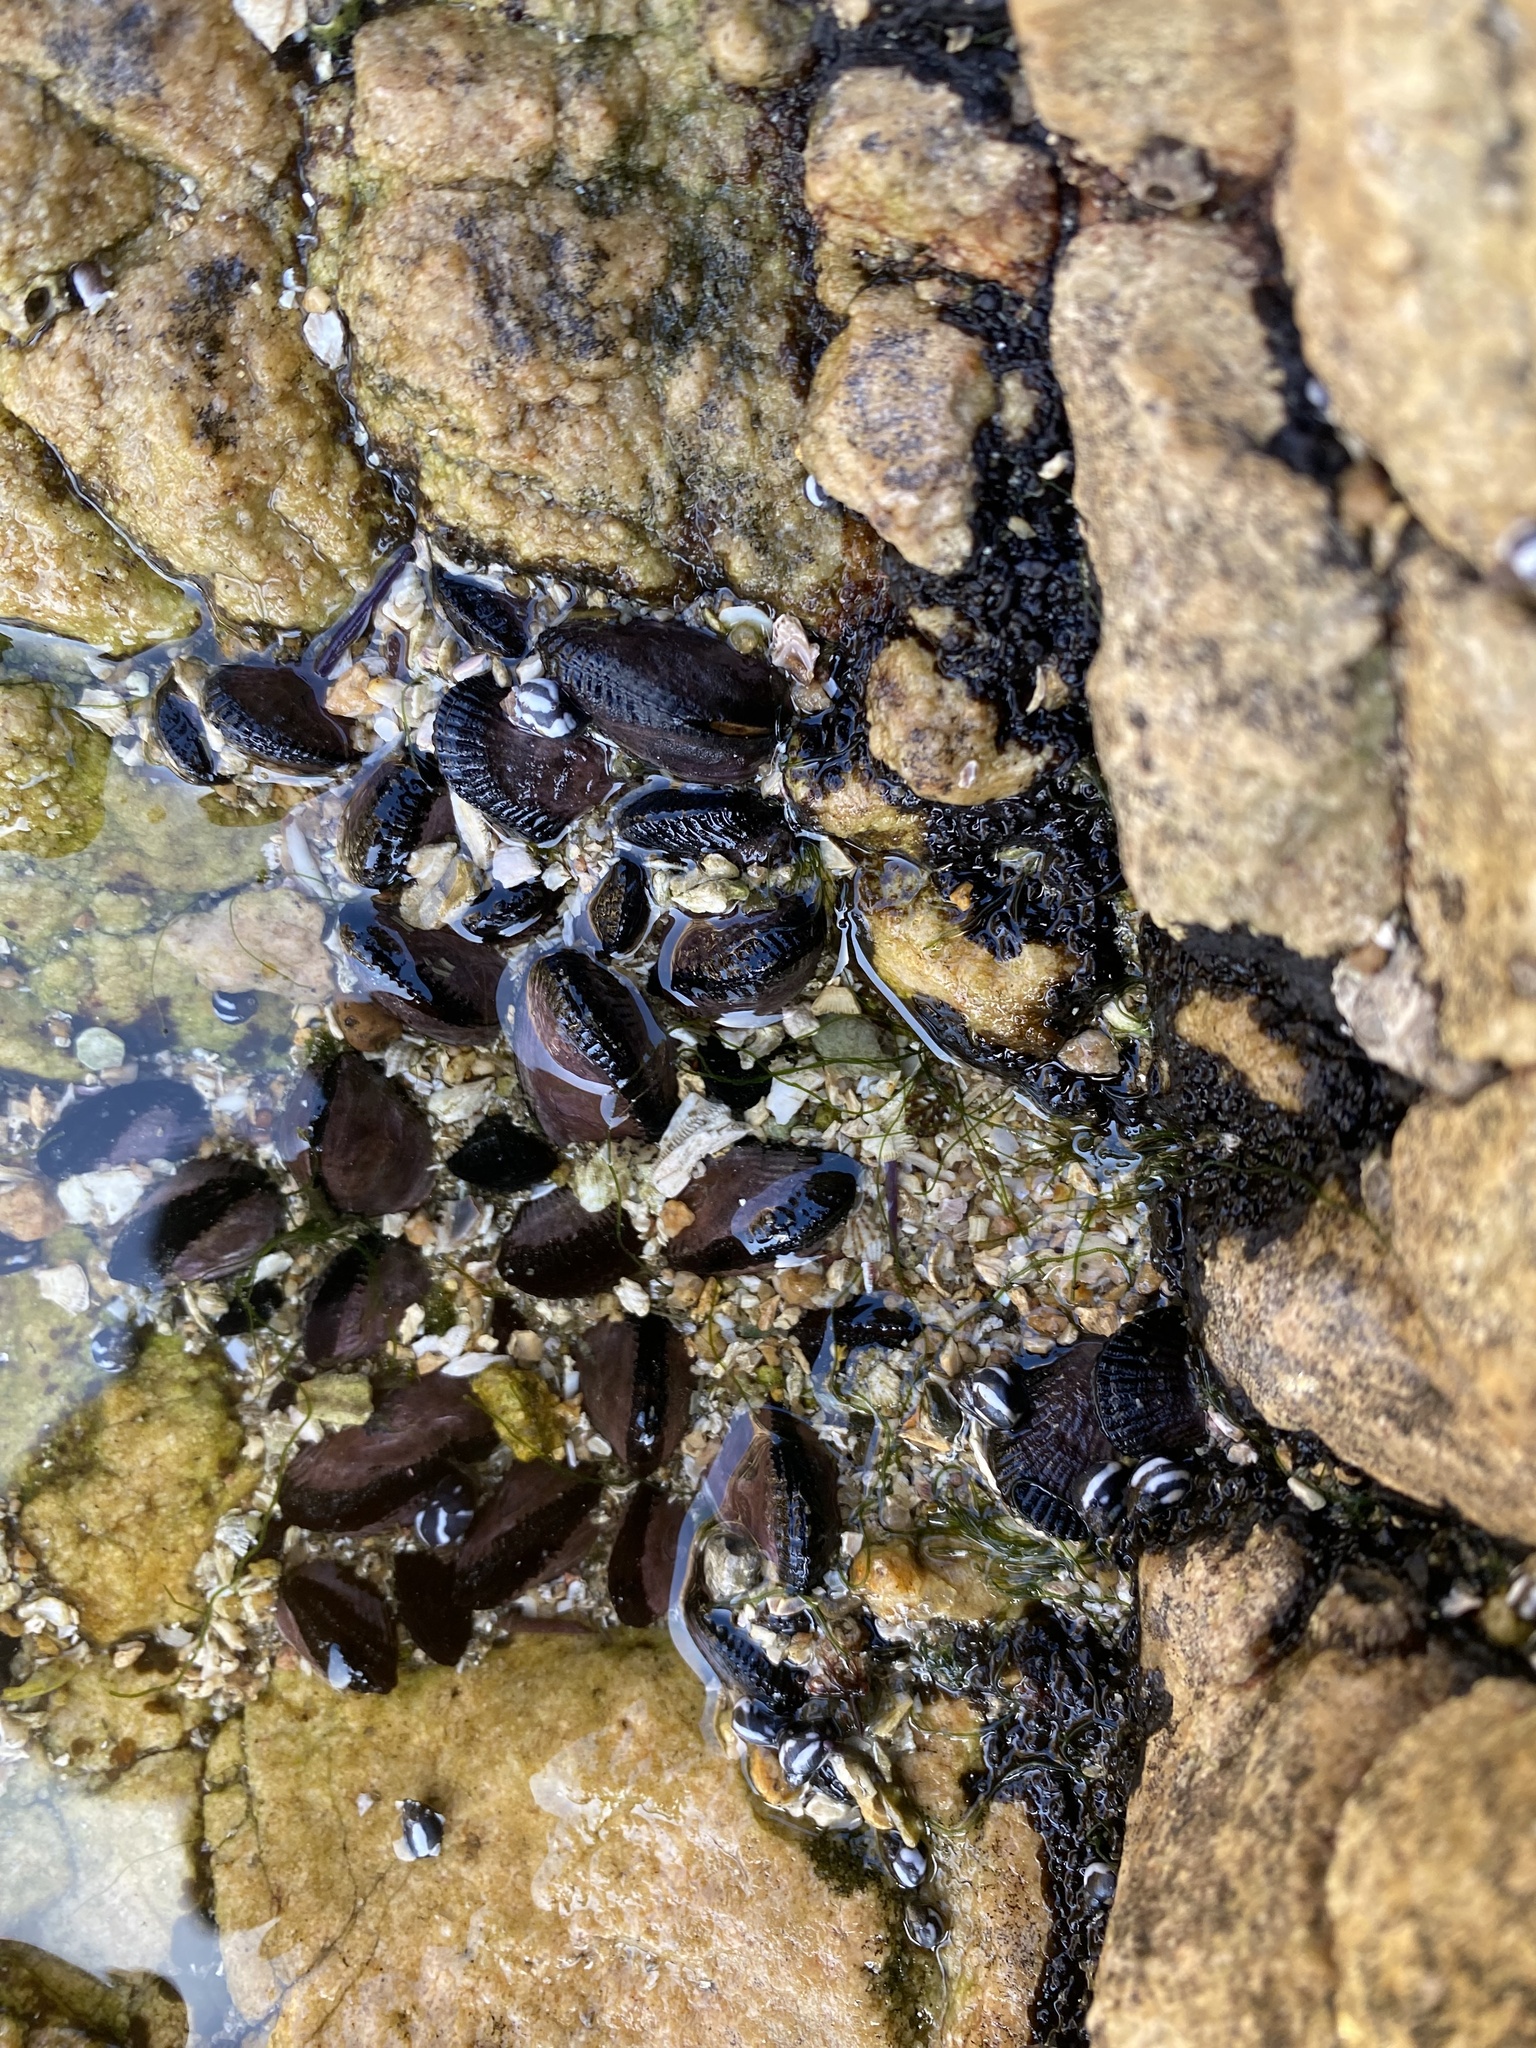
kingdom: Animalia
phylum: Mollusca
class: Bivalvia
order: Mytilida
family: Mytilidae
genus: Perumytilus
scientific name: Perumytilus purpuratus
